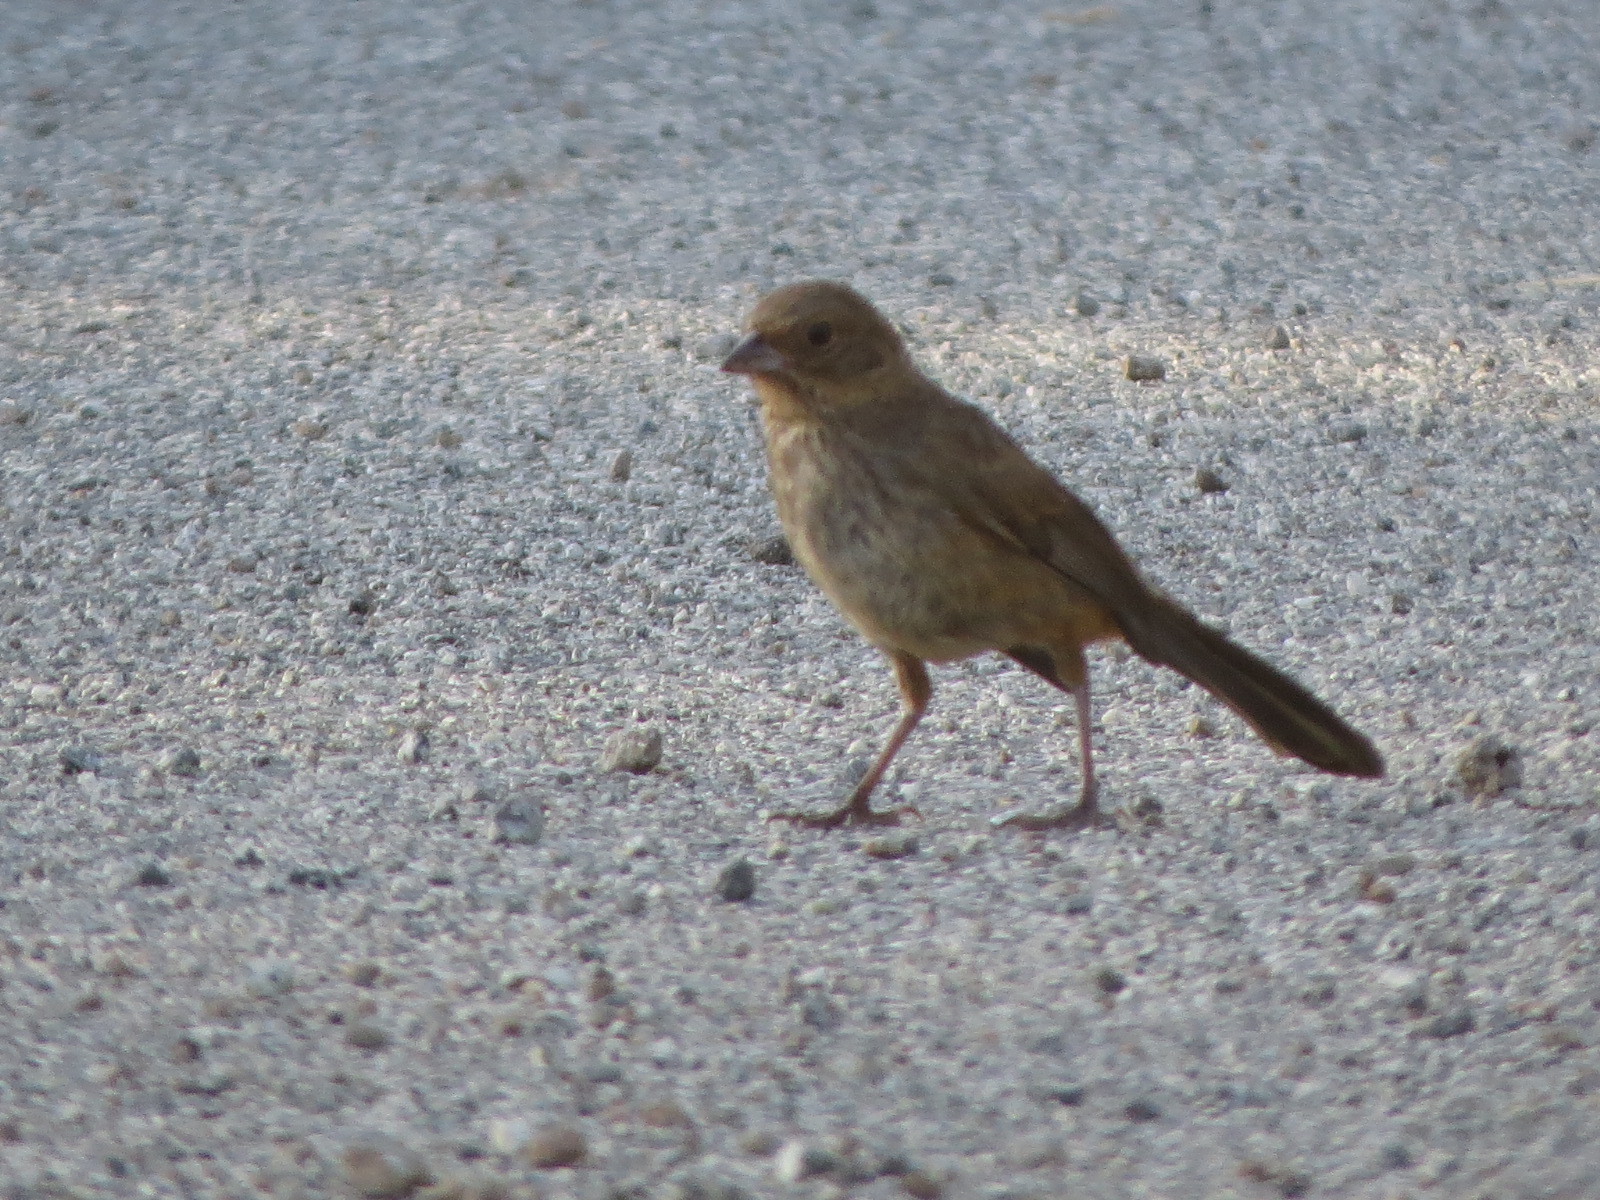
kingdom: Animalia
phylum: Chordata
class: Aves
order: Passeriformes
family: Passerellidae
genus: Melozone
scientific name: Melozone crissalis
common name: California towhee
